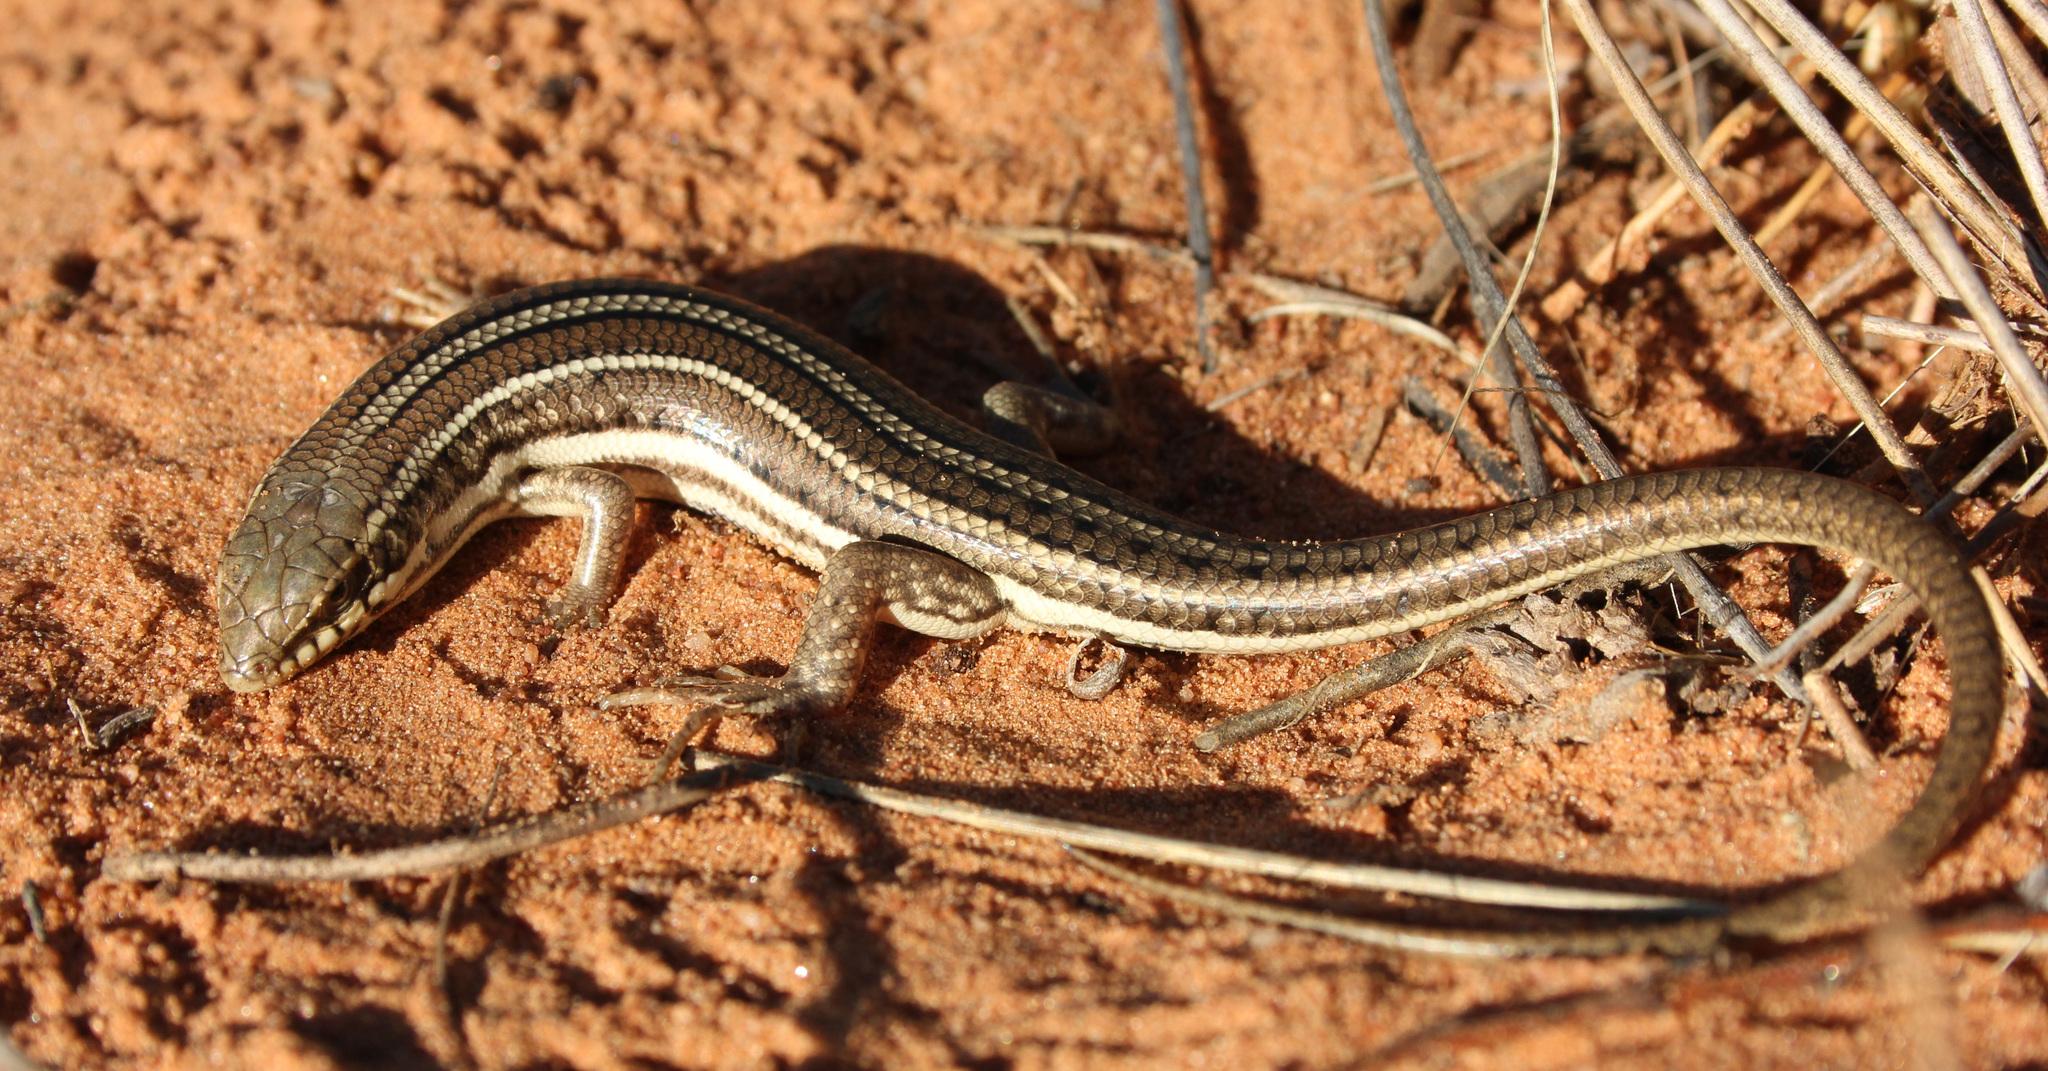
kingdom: Animalia
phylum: Chordata
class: Squamata
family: Scincidae
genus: Trachylepis
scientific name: Trachylepis occidentalis
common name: Western three-striped skink
